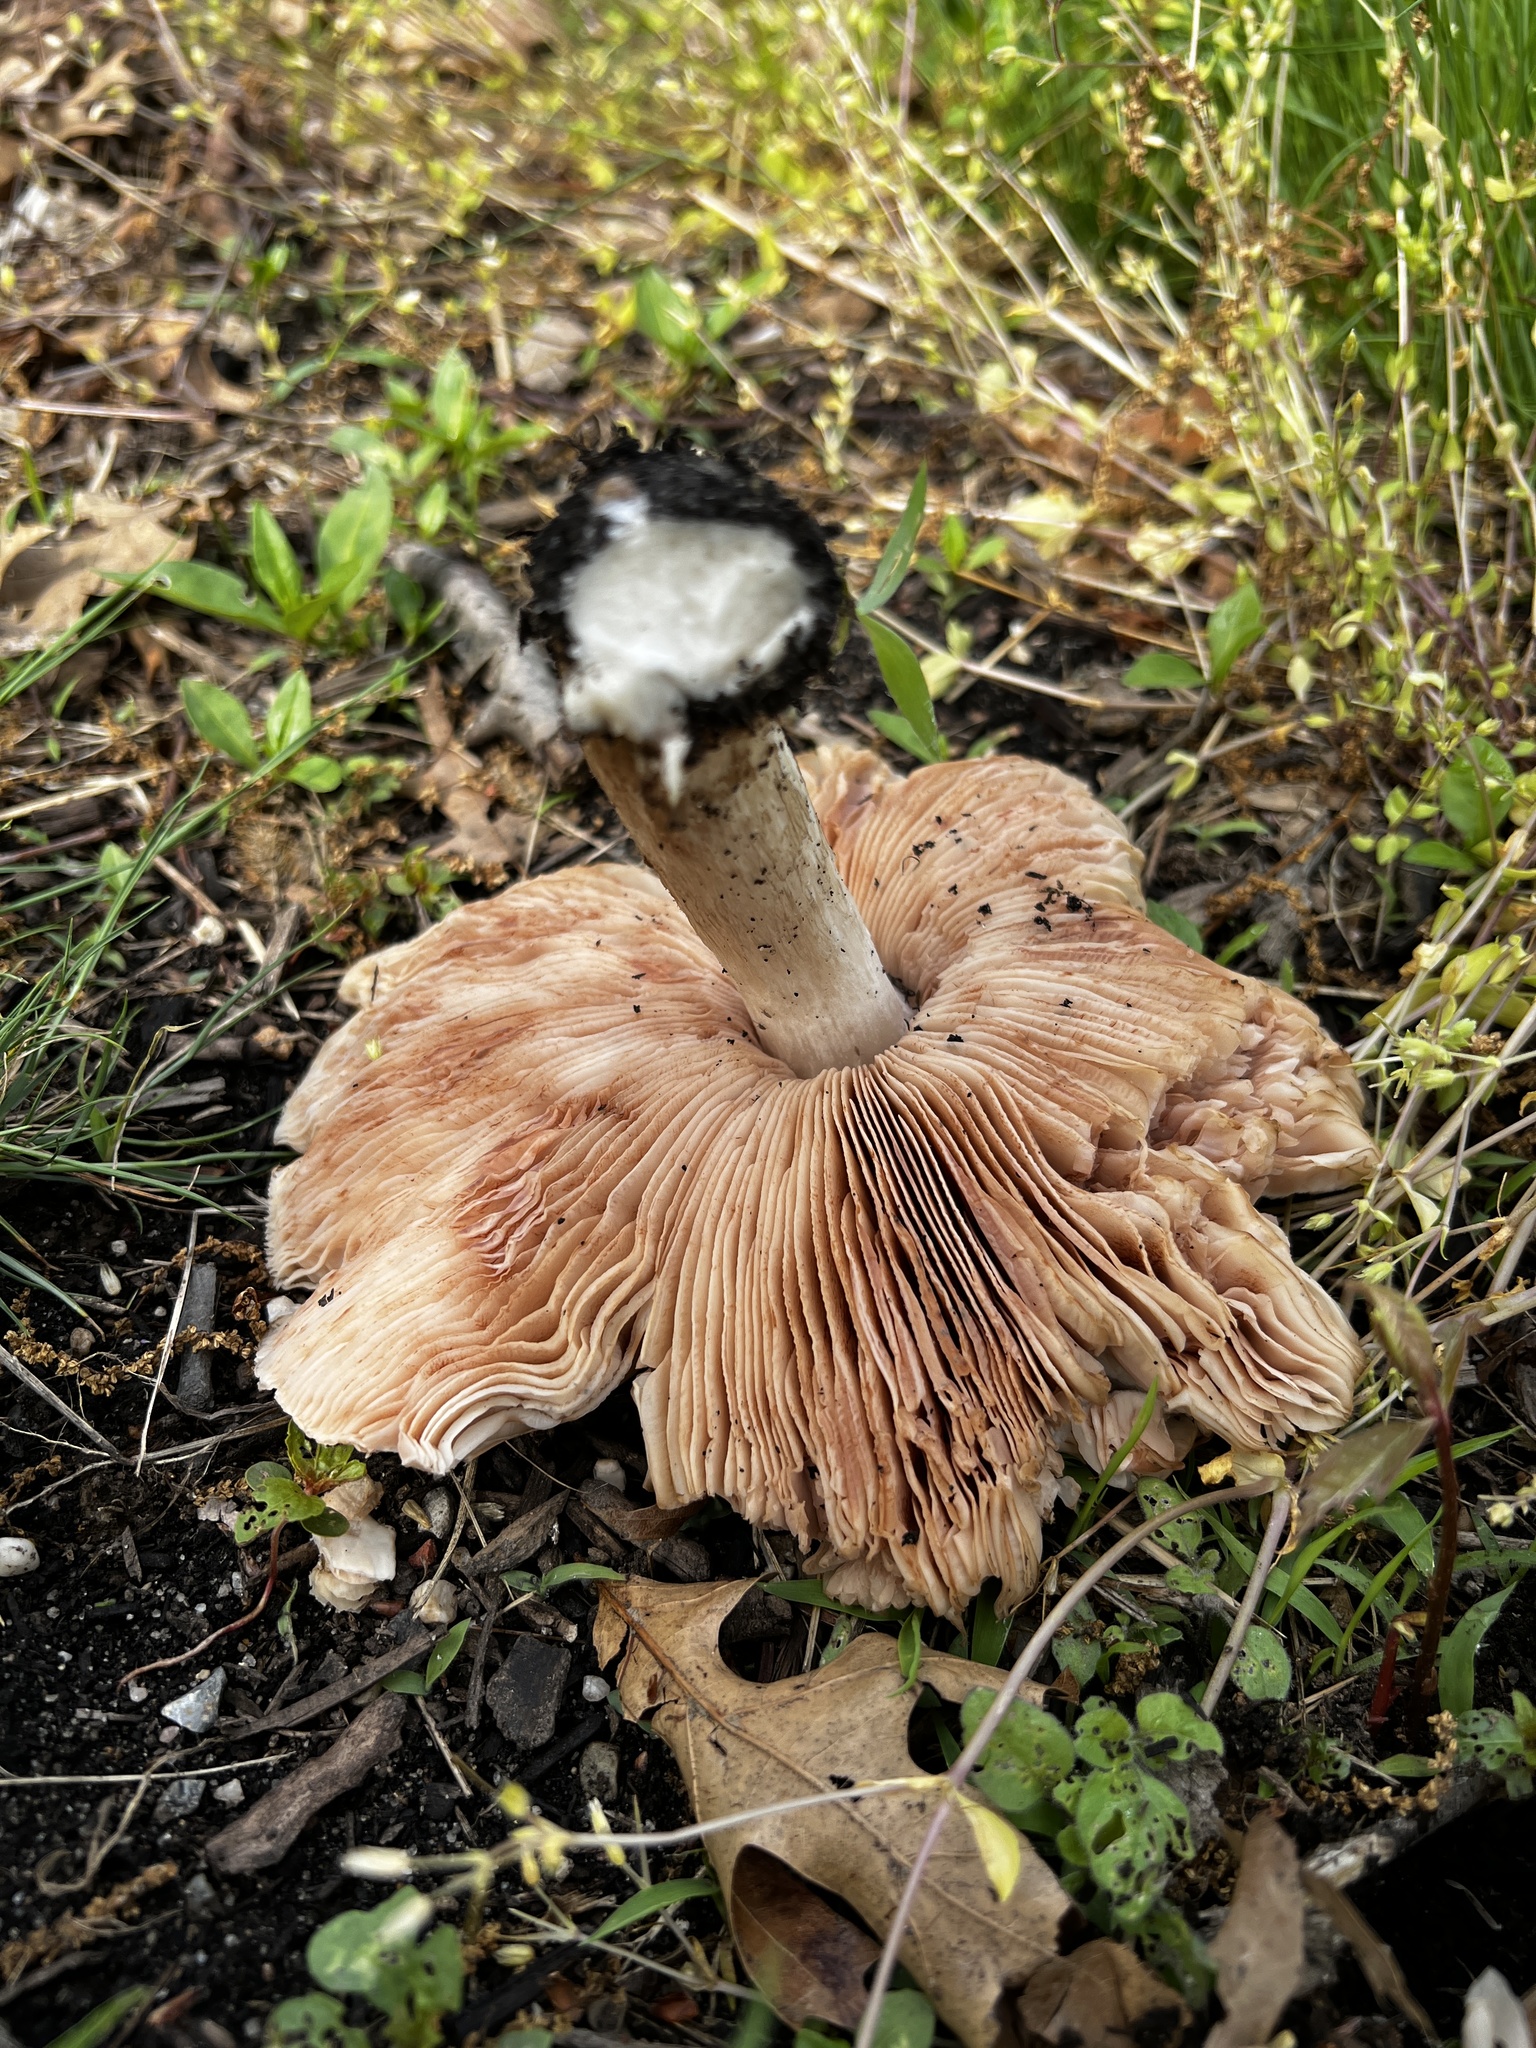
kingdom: Fungi
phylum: Basidiomycota
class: Agaricomycetes
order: Agaricales
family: Pluteaceae
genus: Pluteus
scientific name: Pluteus petasatus
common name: Scaly shield
